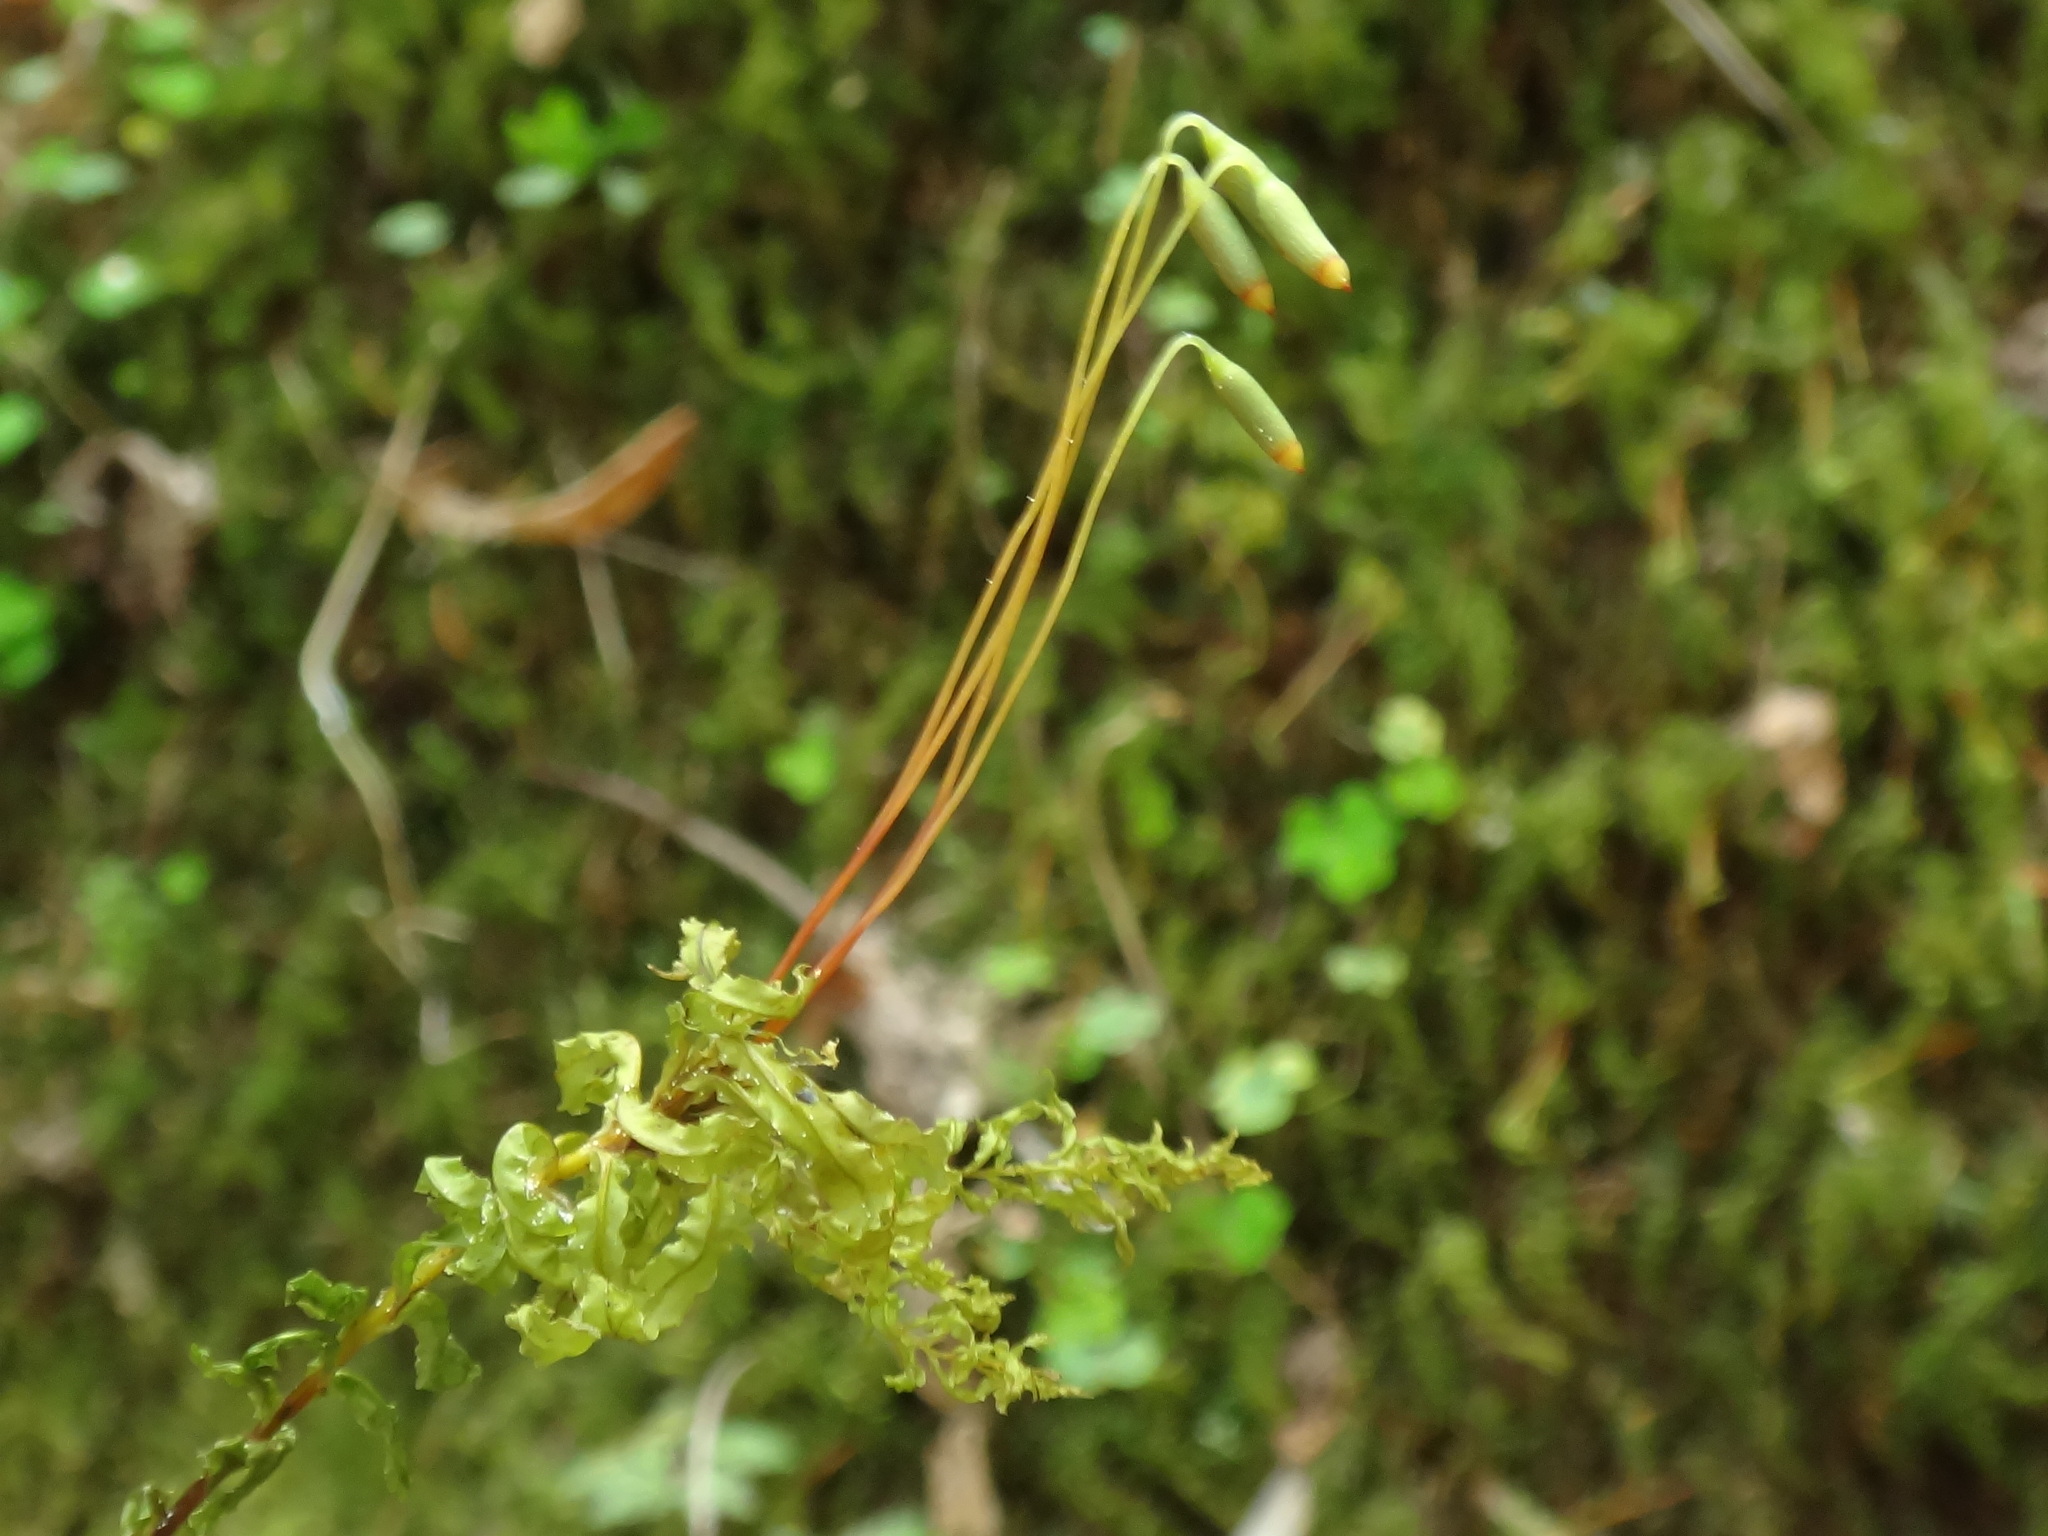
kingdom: Plantae
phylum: Bryophyta
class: Bryopsida
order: Bryales
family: Mniaceae
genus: Plagiomnium
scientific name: Plagiomnium undulatum
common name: Hart's-tongue thyme-moss
